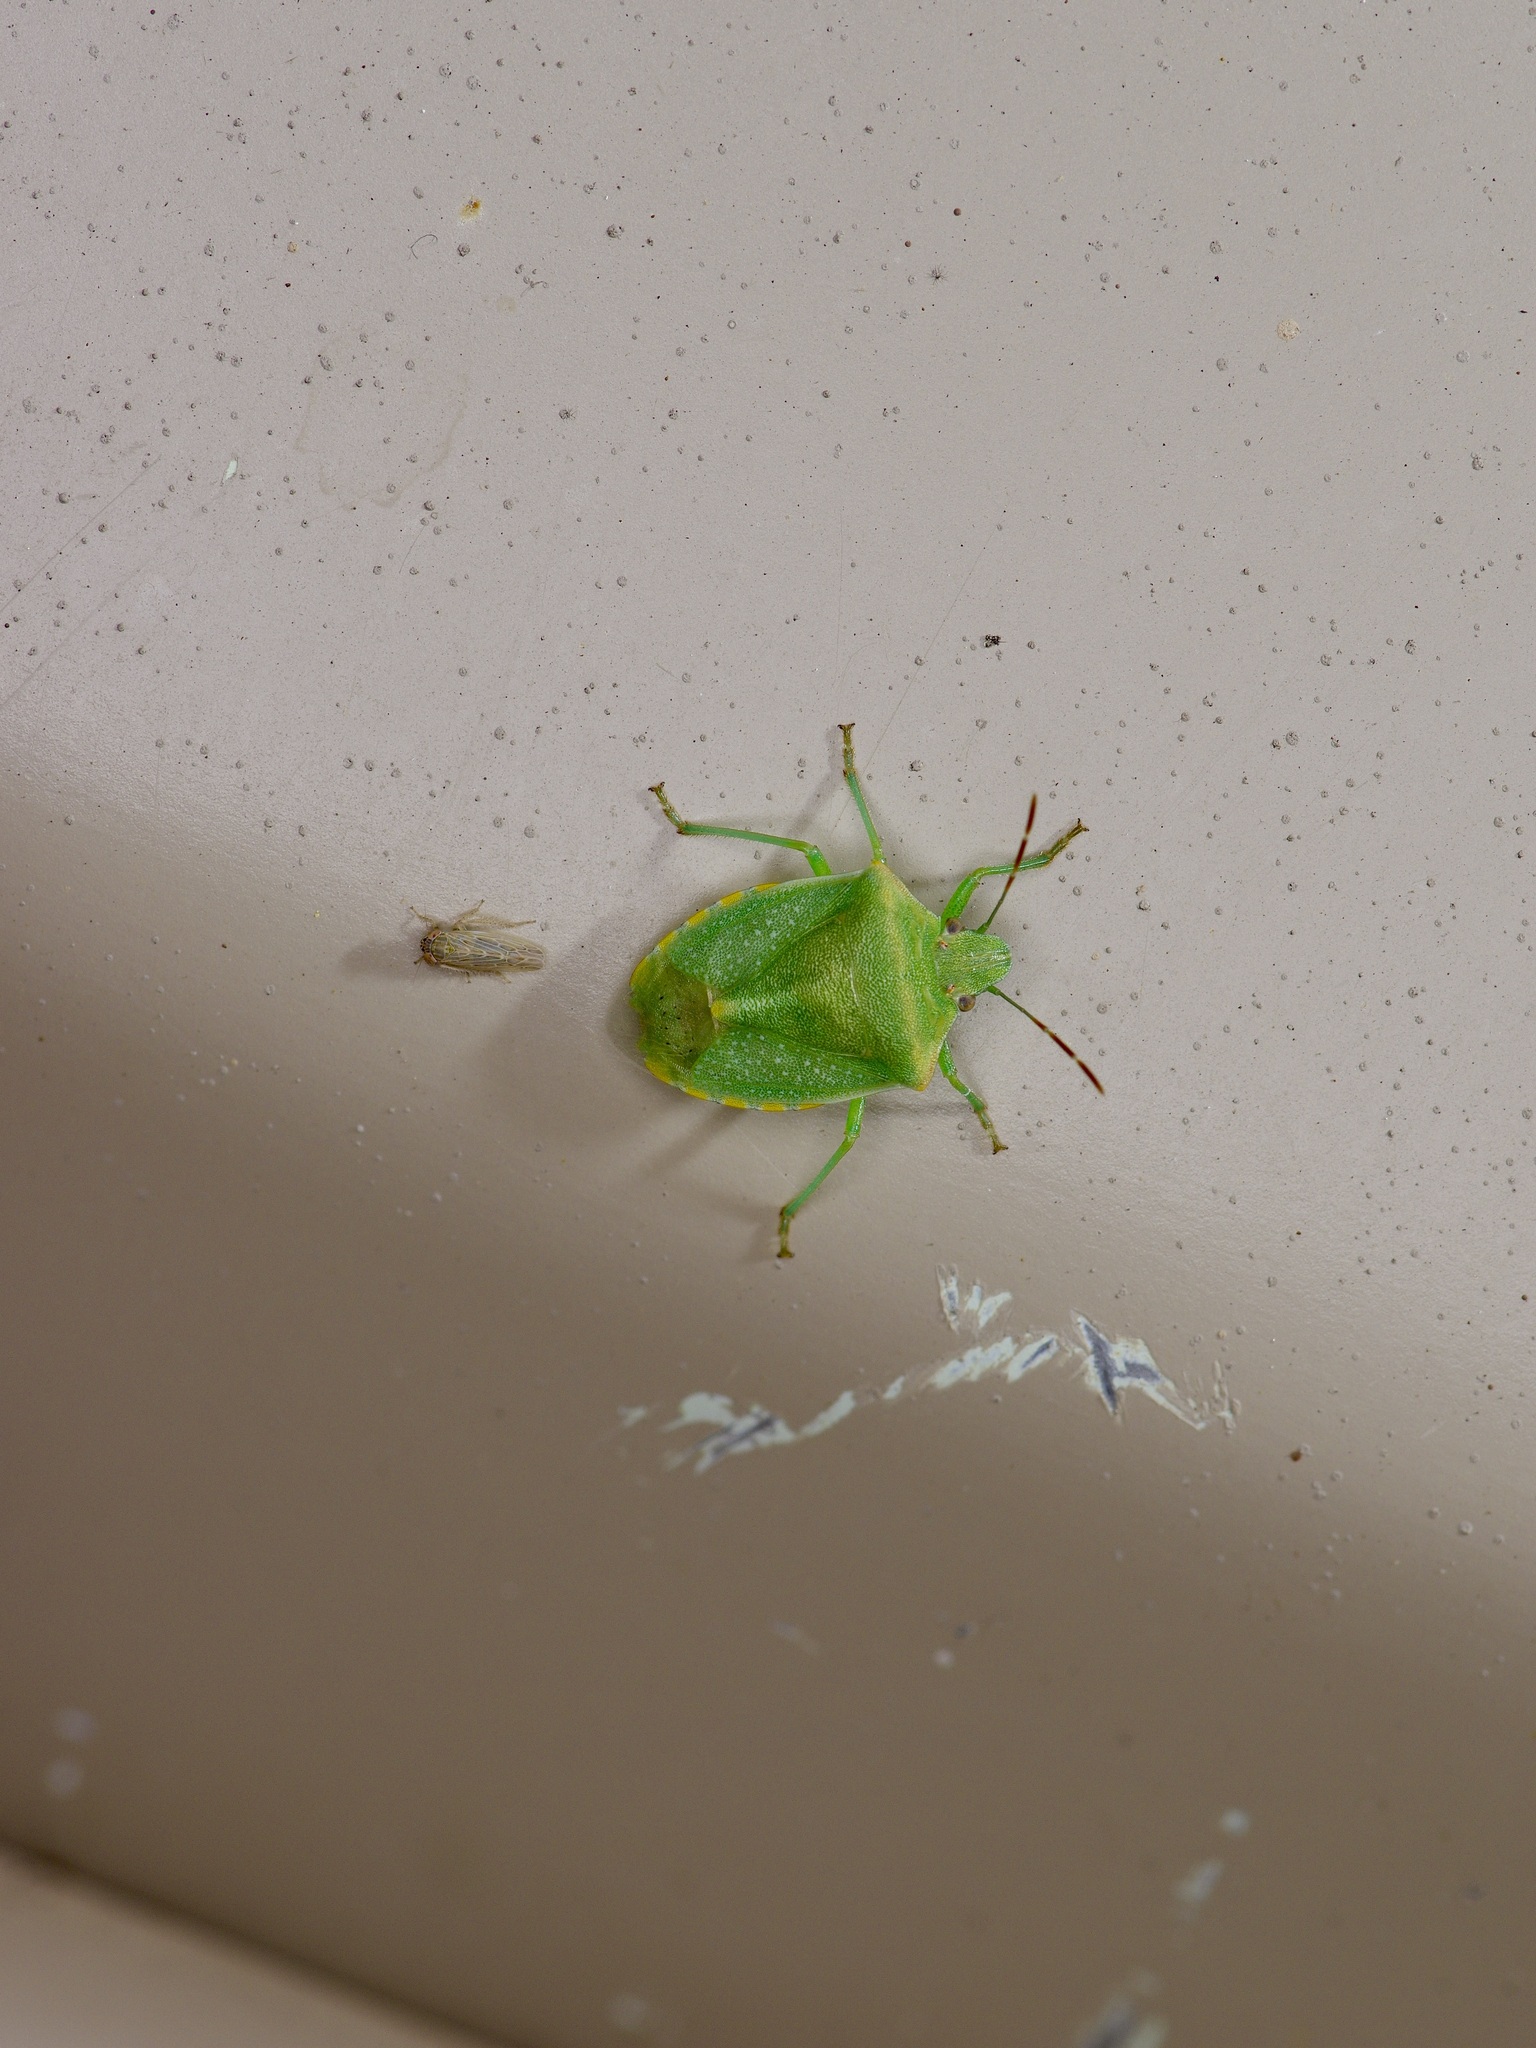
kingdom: Animalia
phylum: Arthropoda
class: Insecta
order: Hemiptera
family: Pentatomidae
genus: Thyanta
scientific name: Thyanta custator
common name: Stink bug
